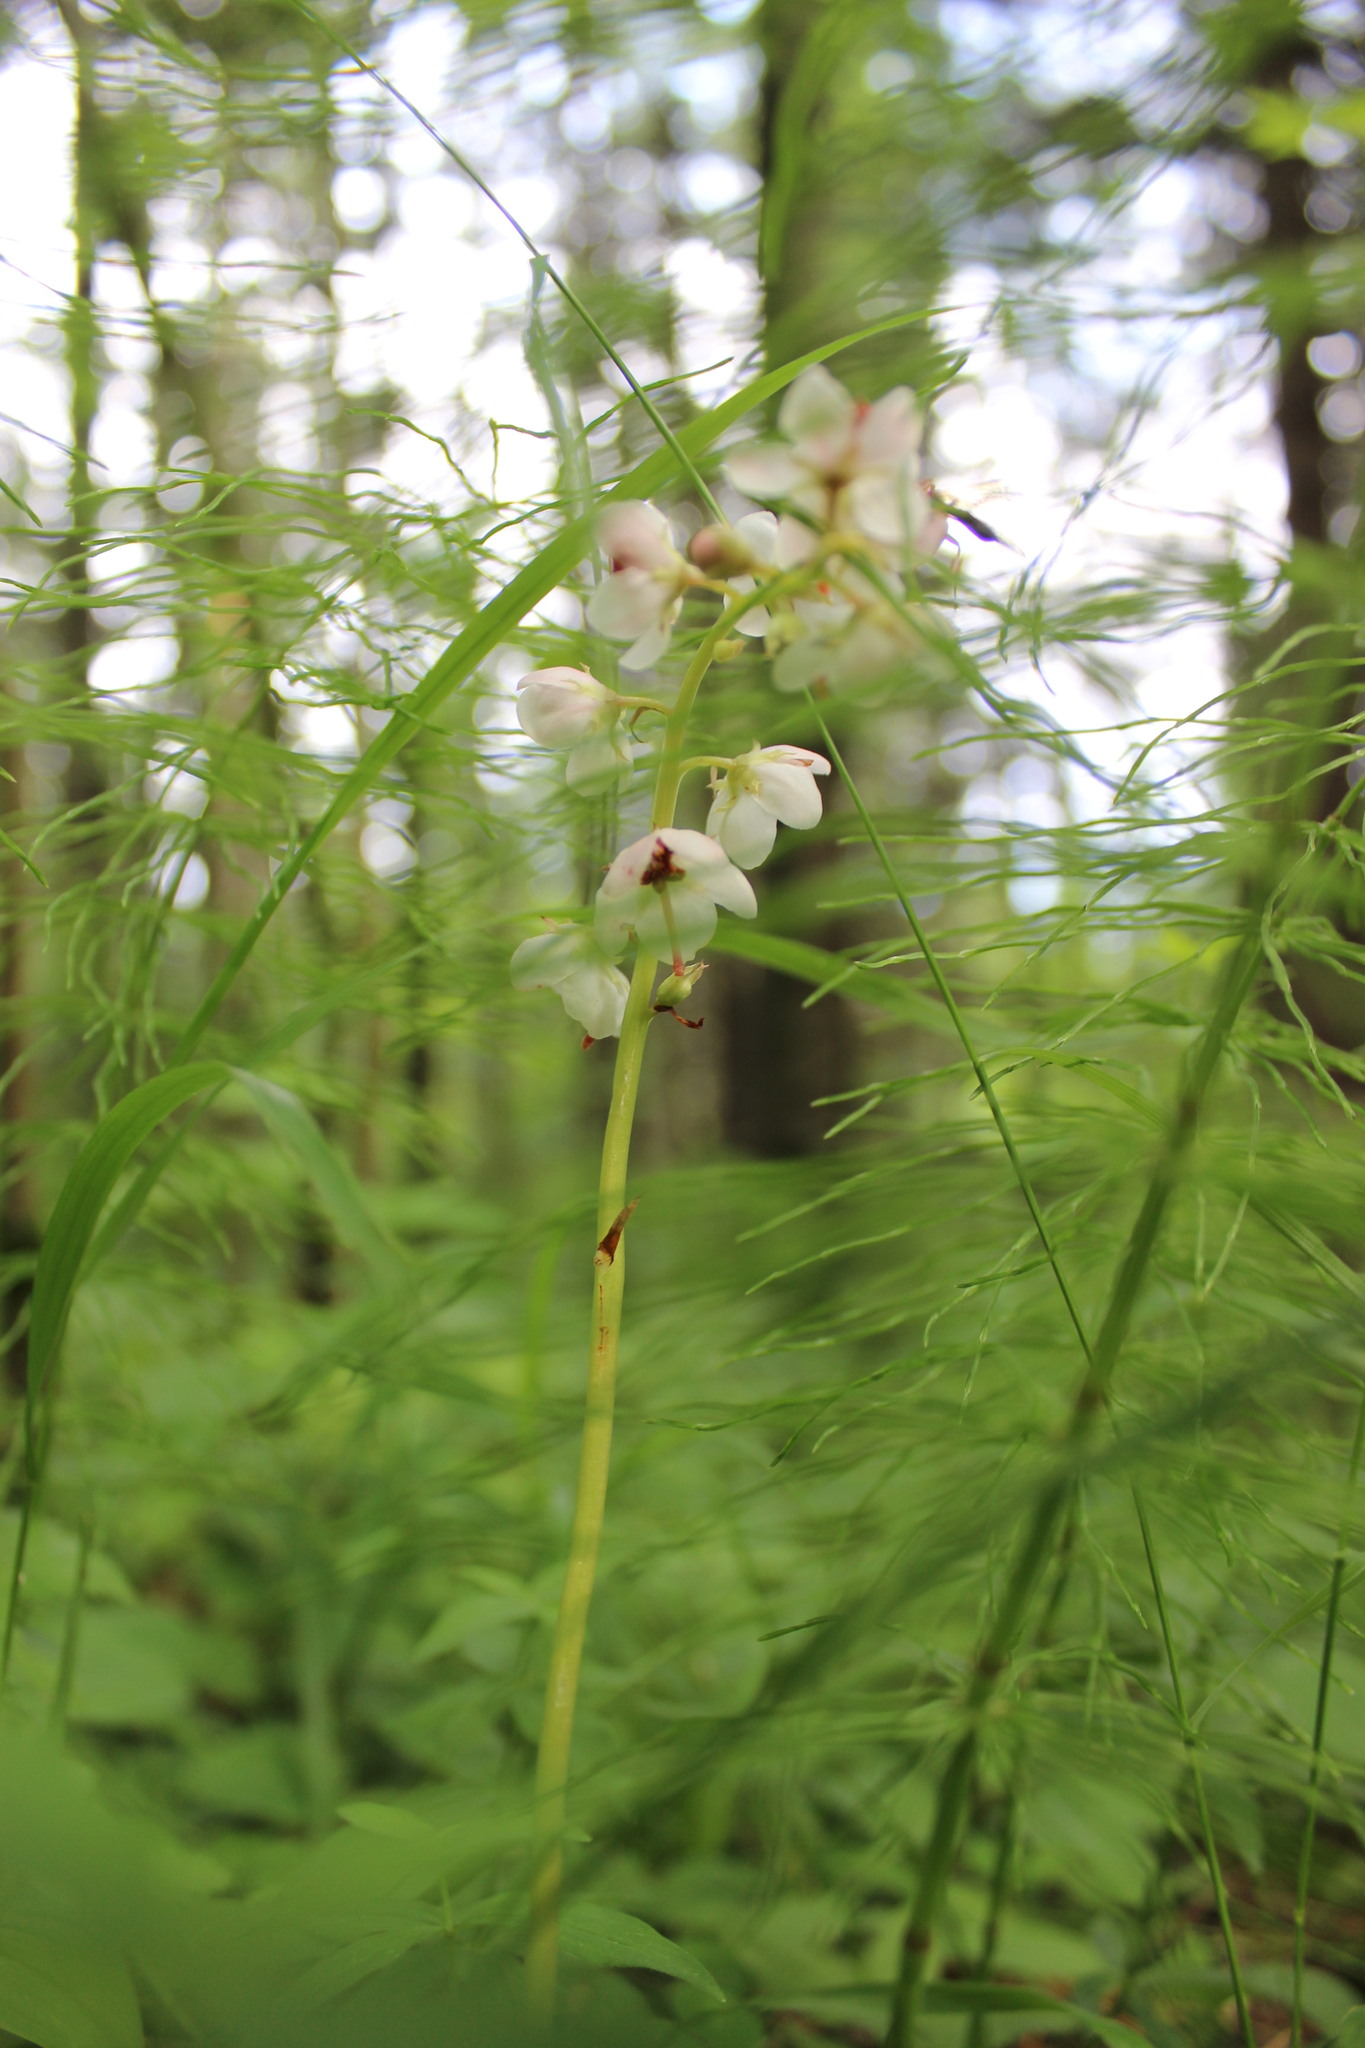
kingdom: Plantae
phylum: Tracheophyta
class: Magnoliopsida
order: Ericales
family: Ericaceae
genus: Pyrola
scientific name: Pyrola asarifolia
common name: Bog wintergreen
